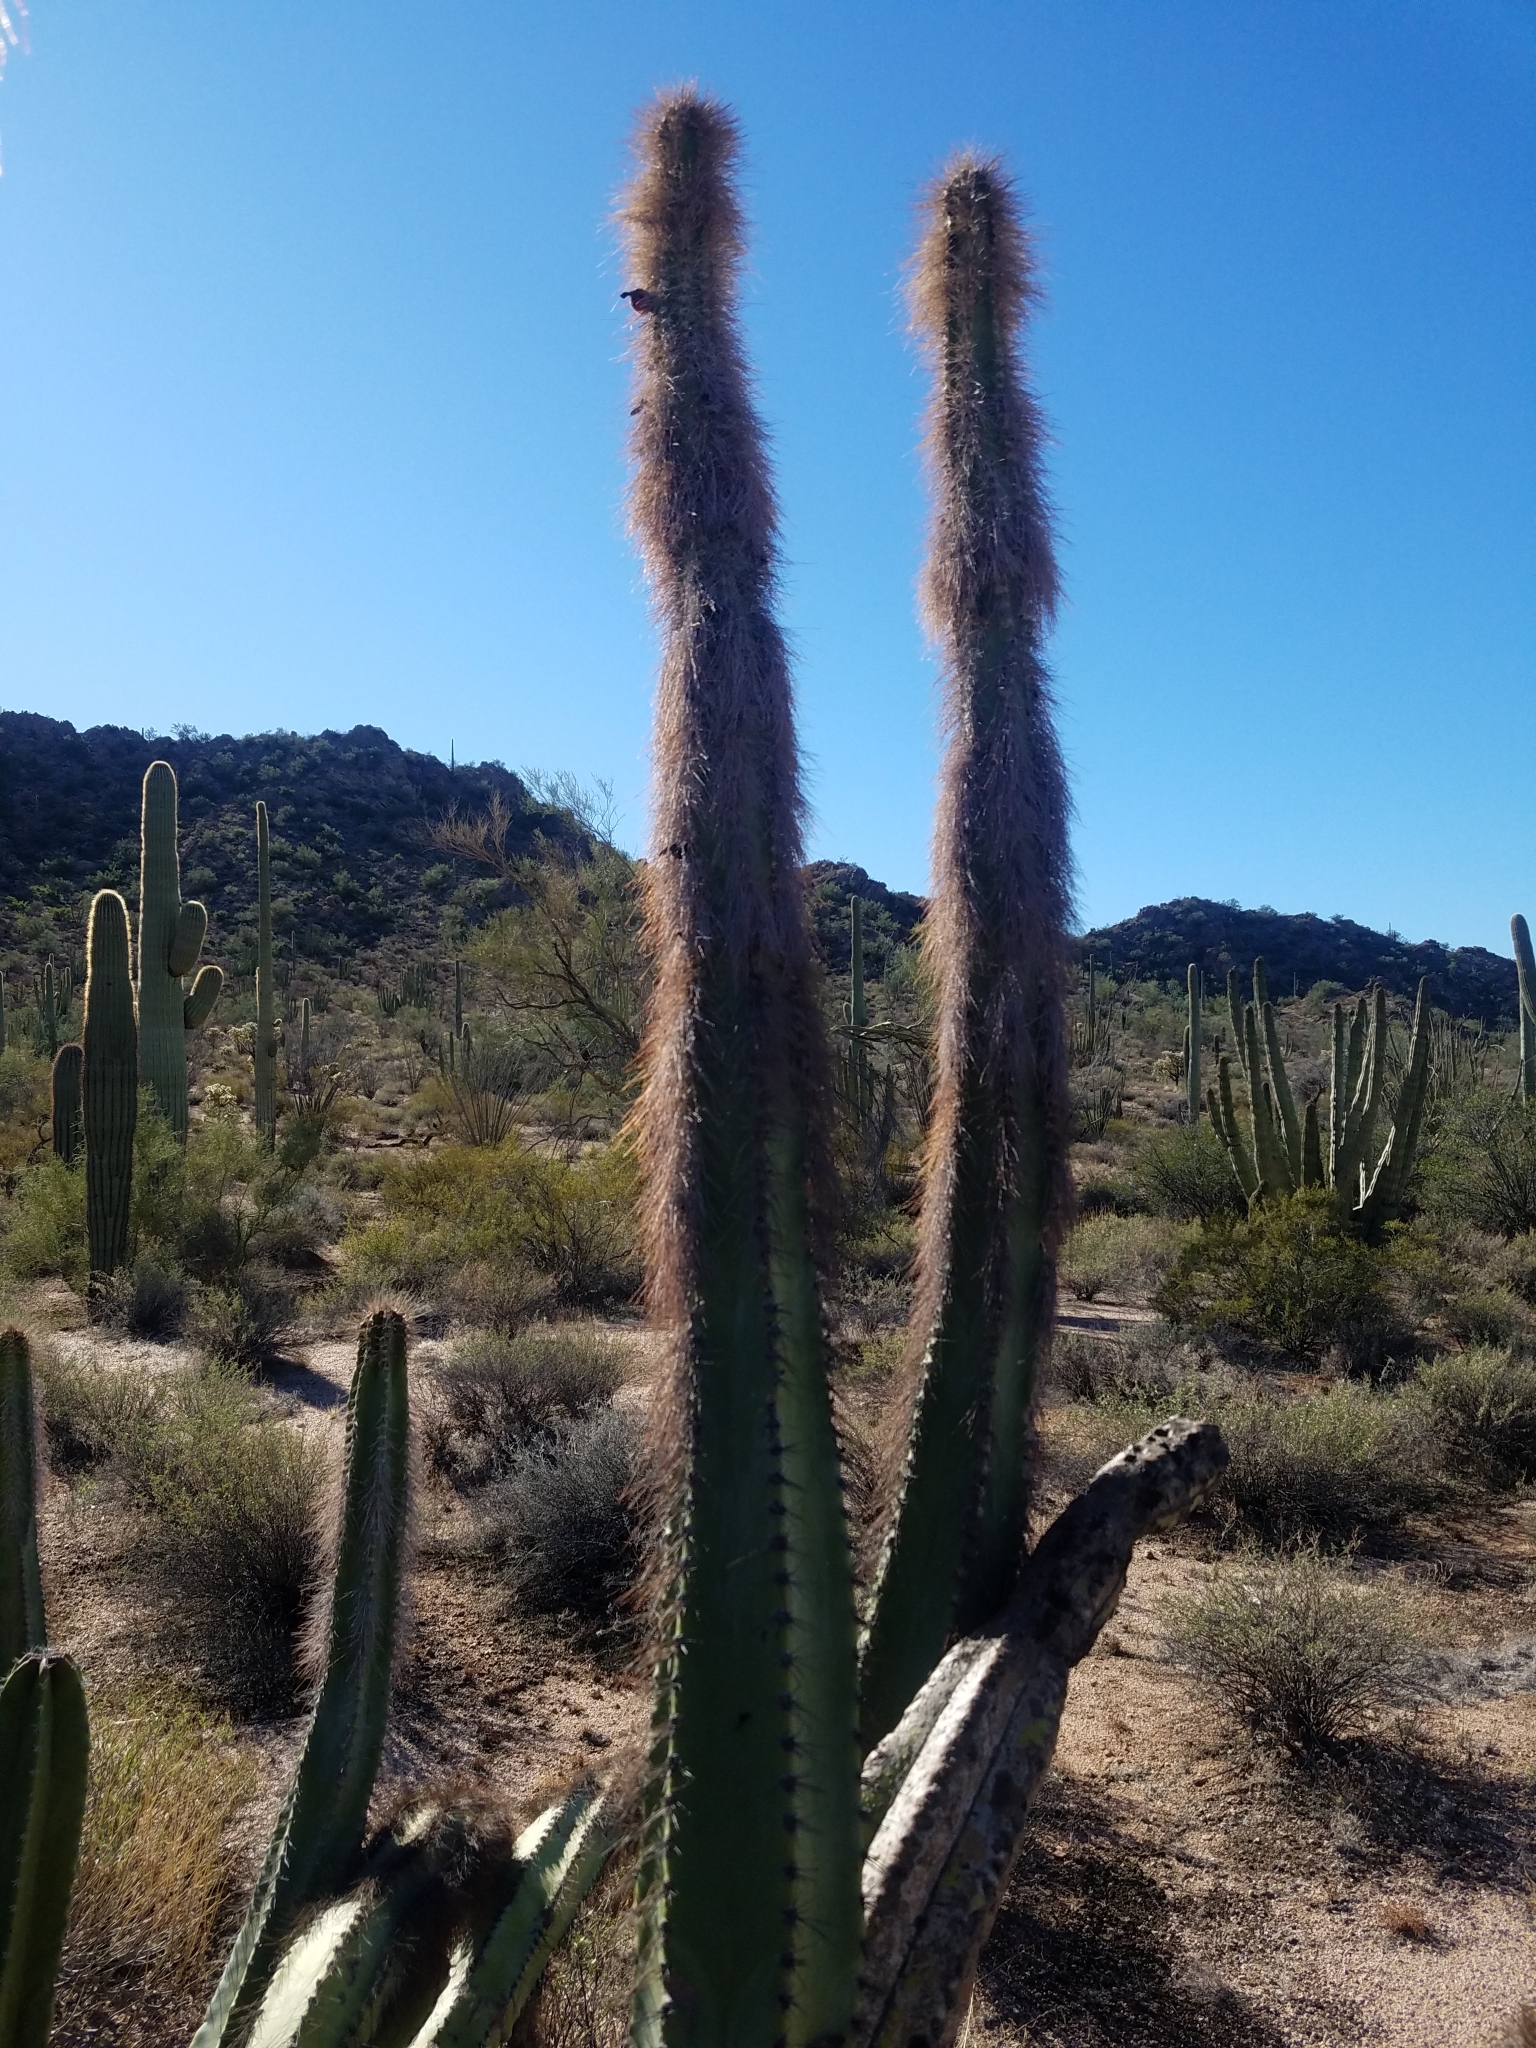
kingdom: Plantae
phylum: Tracheophyta
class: Magnoliopsida
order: Caryophyllales
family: Cactaceae
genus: Pachycereus
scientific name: Pachycereus schottii
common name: Senita cactus
